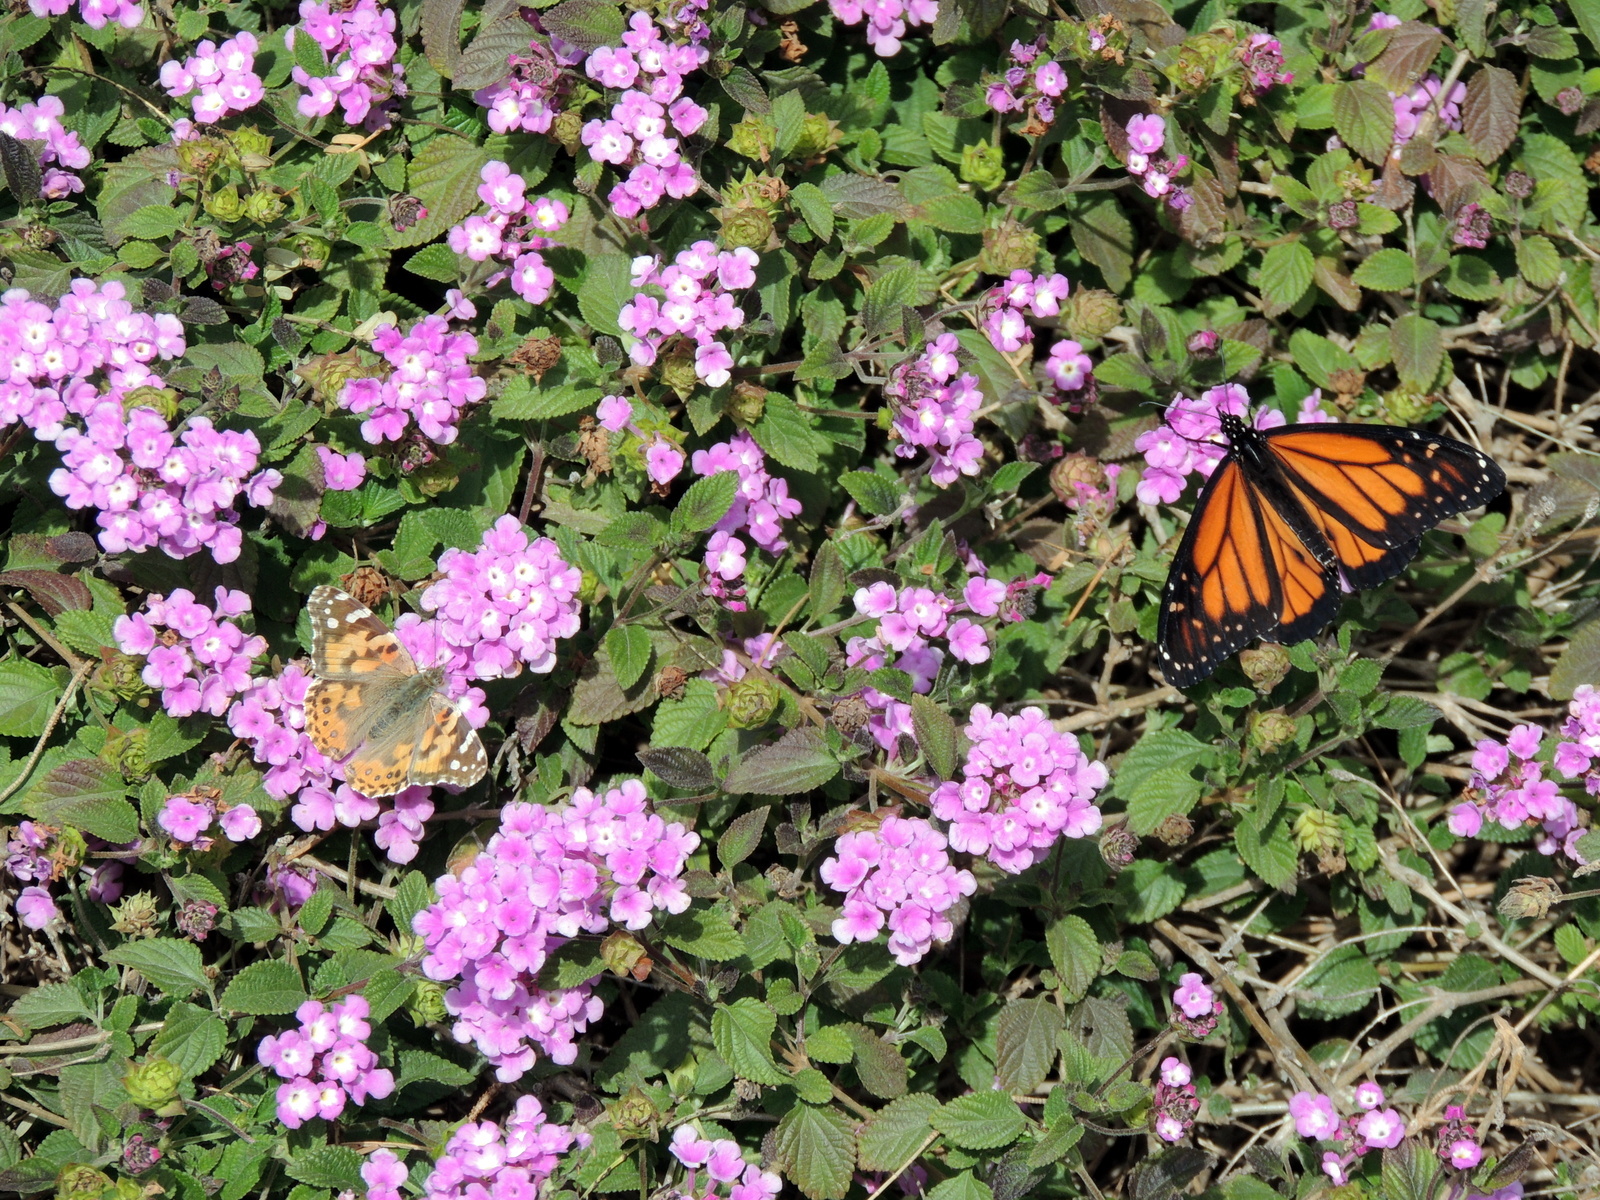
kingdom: Animalia
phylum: Arthropoda
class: Insecta
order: Lepidoptera
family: Nymphalidae
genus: Vanessa
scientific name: Vanessa cardui
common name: Painted lady
